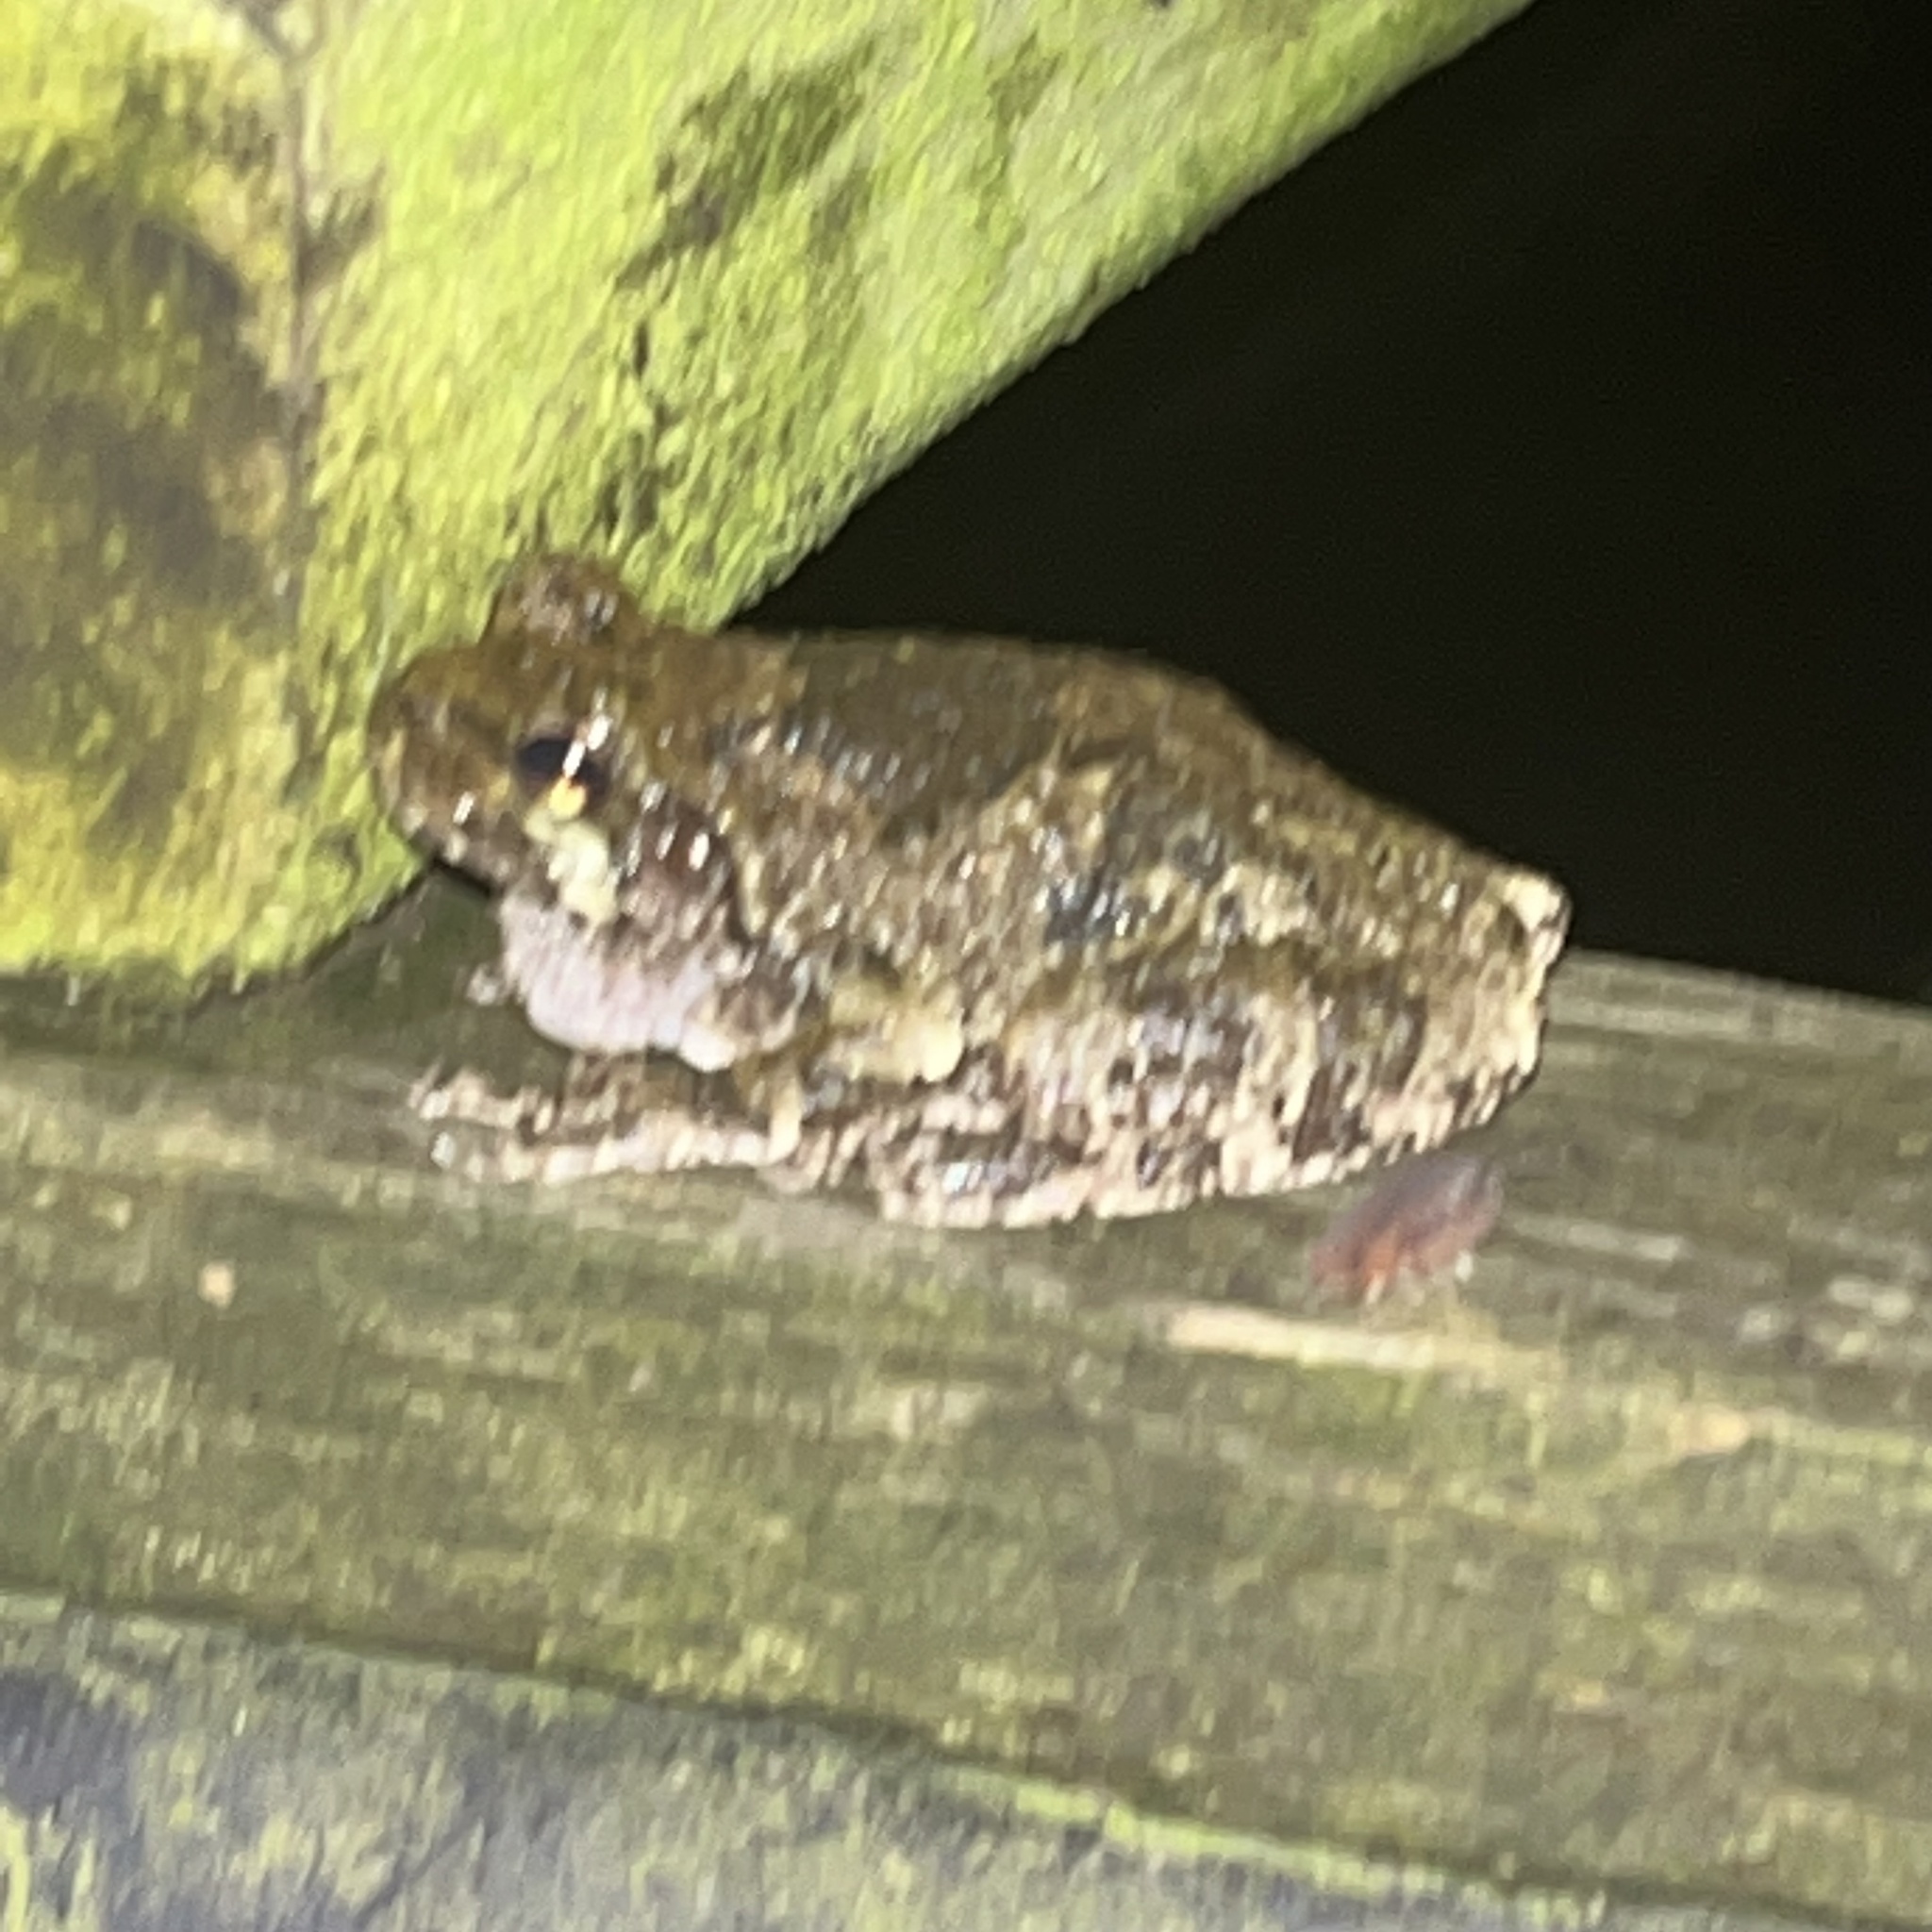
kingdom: Animalia
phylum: Chordata
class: Amphibia
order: Anura
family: Hylidae
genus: Dryophytes
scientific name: Dryophytes versicolor
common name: Gray treefrog
